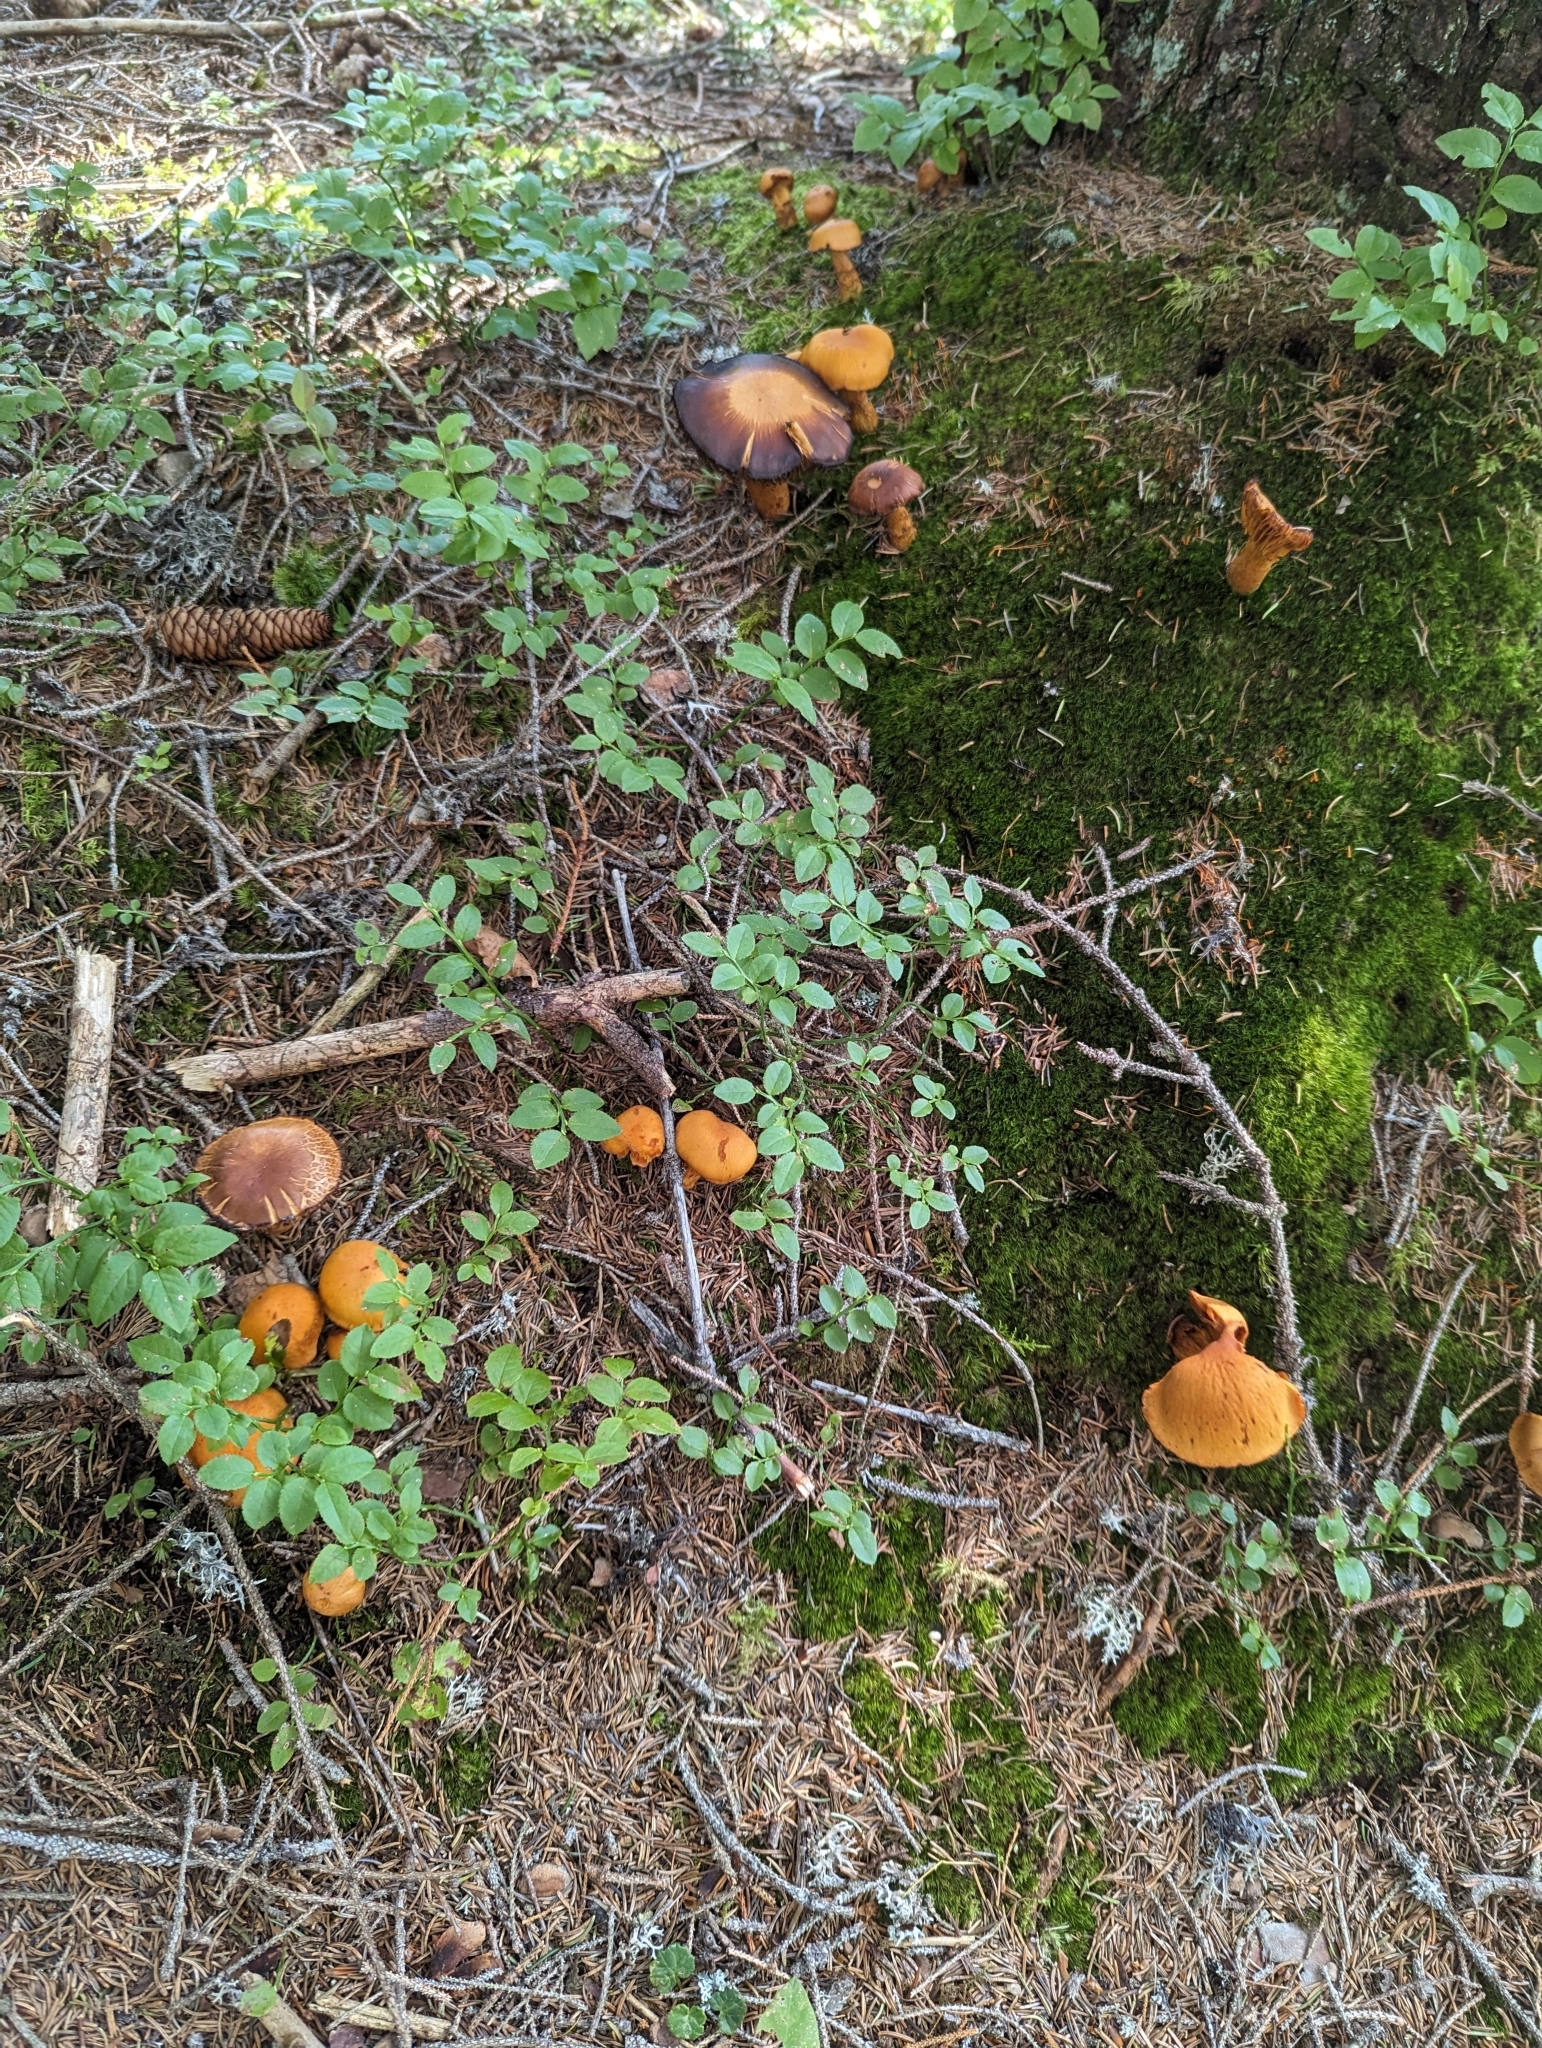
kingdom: Fungi
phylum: Basidiomycota
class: Agaricomycetes
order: Agaricales
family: Cortinariaceae
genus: Aureonarius
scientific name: Aureonarius limonius
